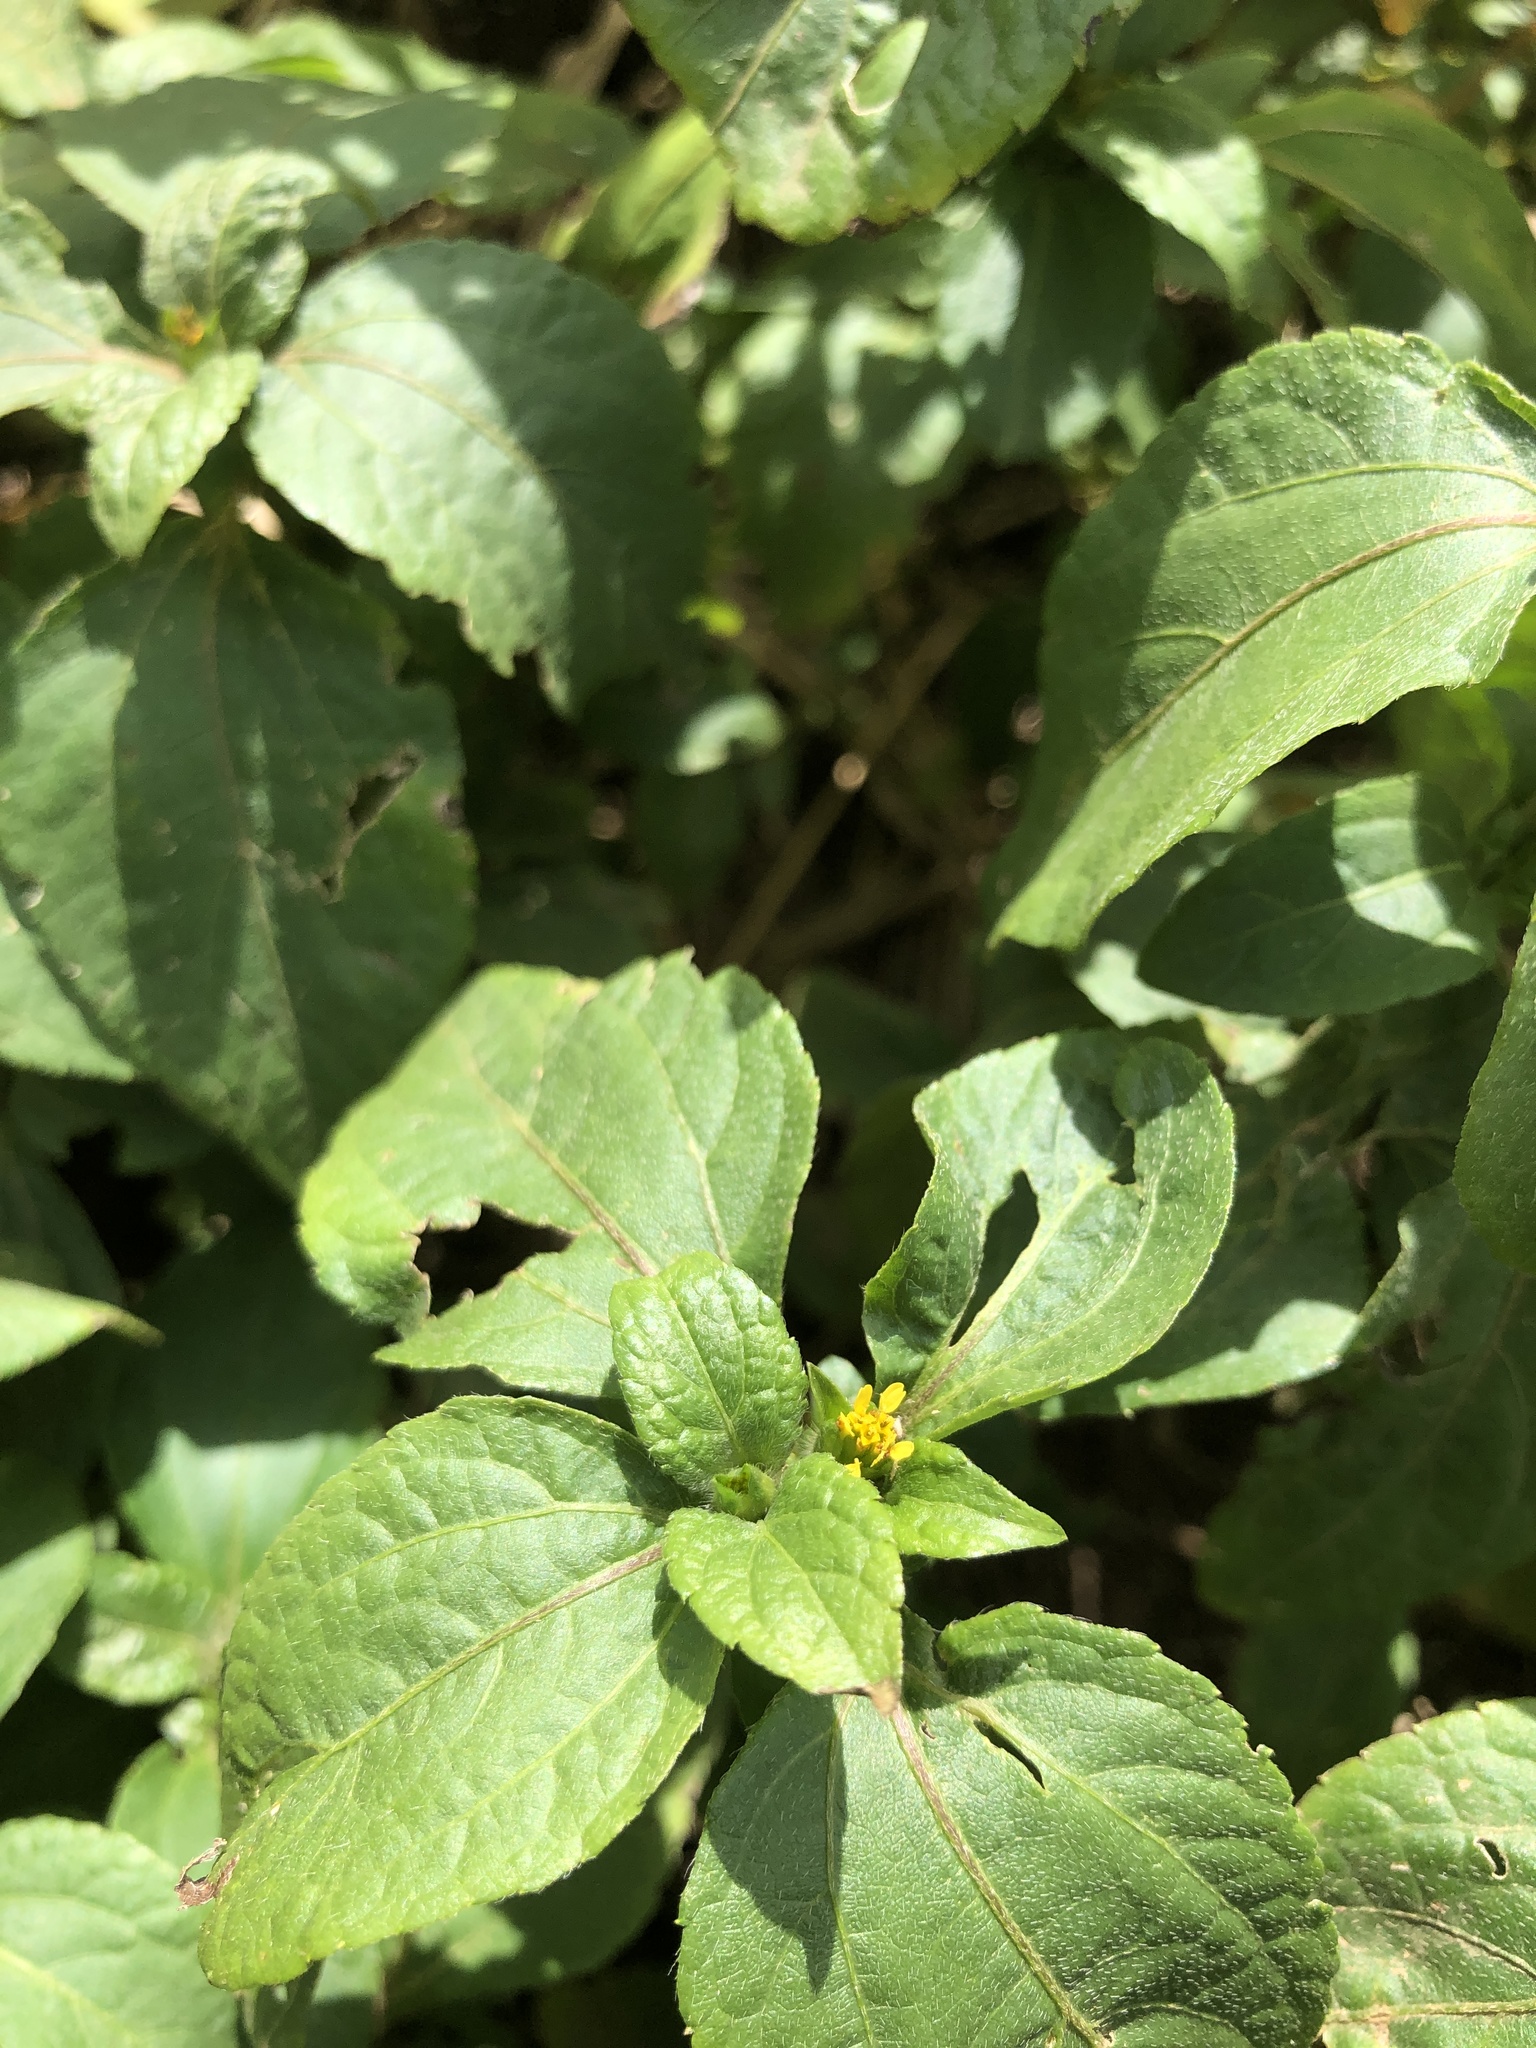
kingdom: Plantae
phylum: Tracheophyta
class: Magnoliopsida
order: Asterales
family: Asteraceae
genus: Synedrella
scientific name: Synedrella nodiflora
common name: Nodeweed
